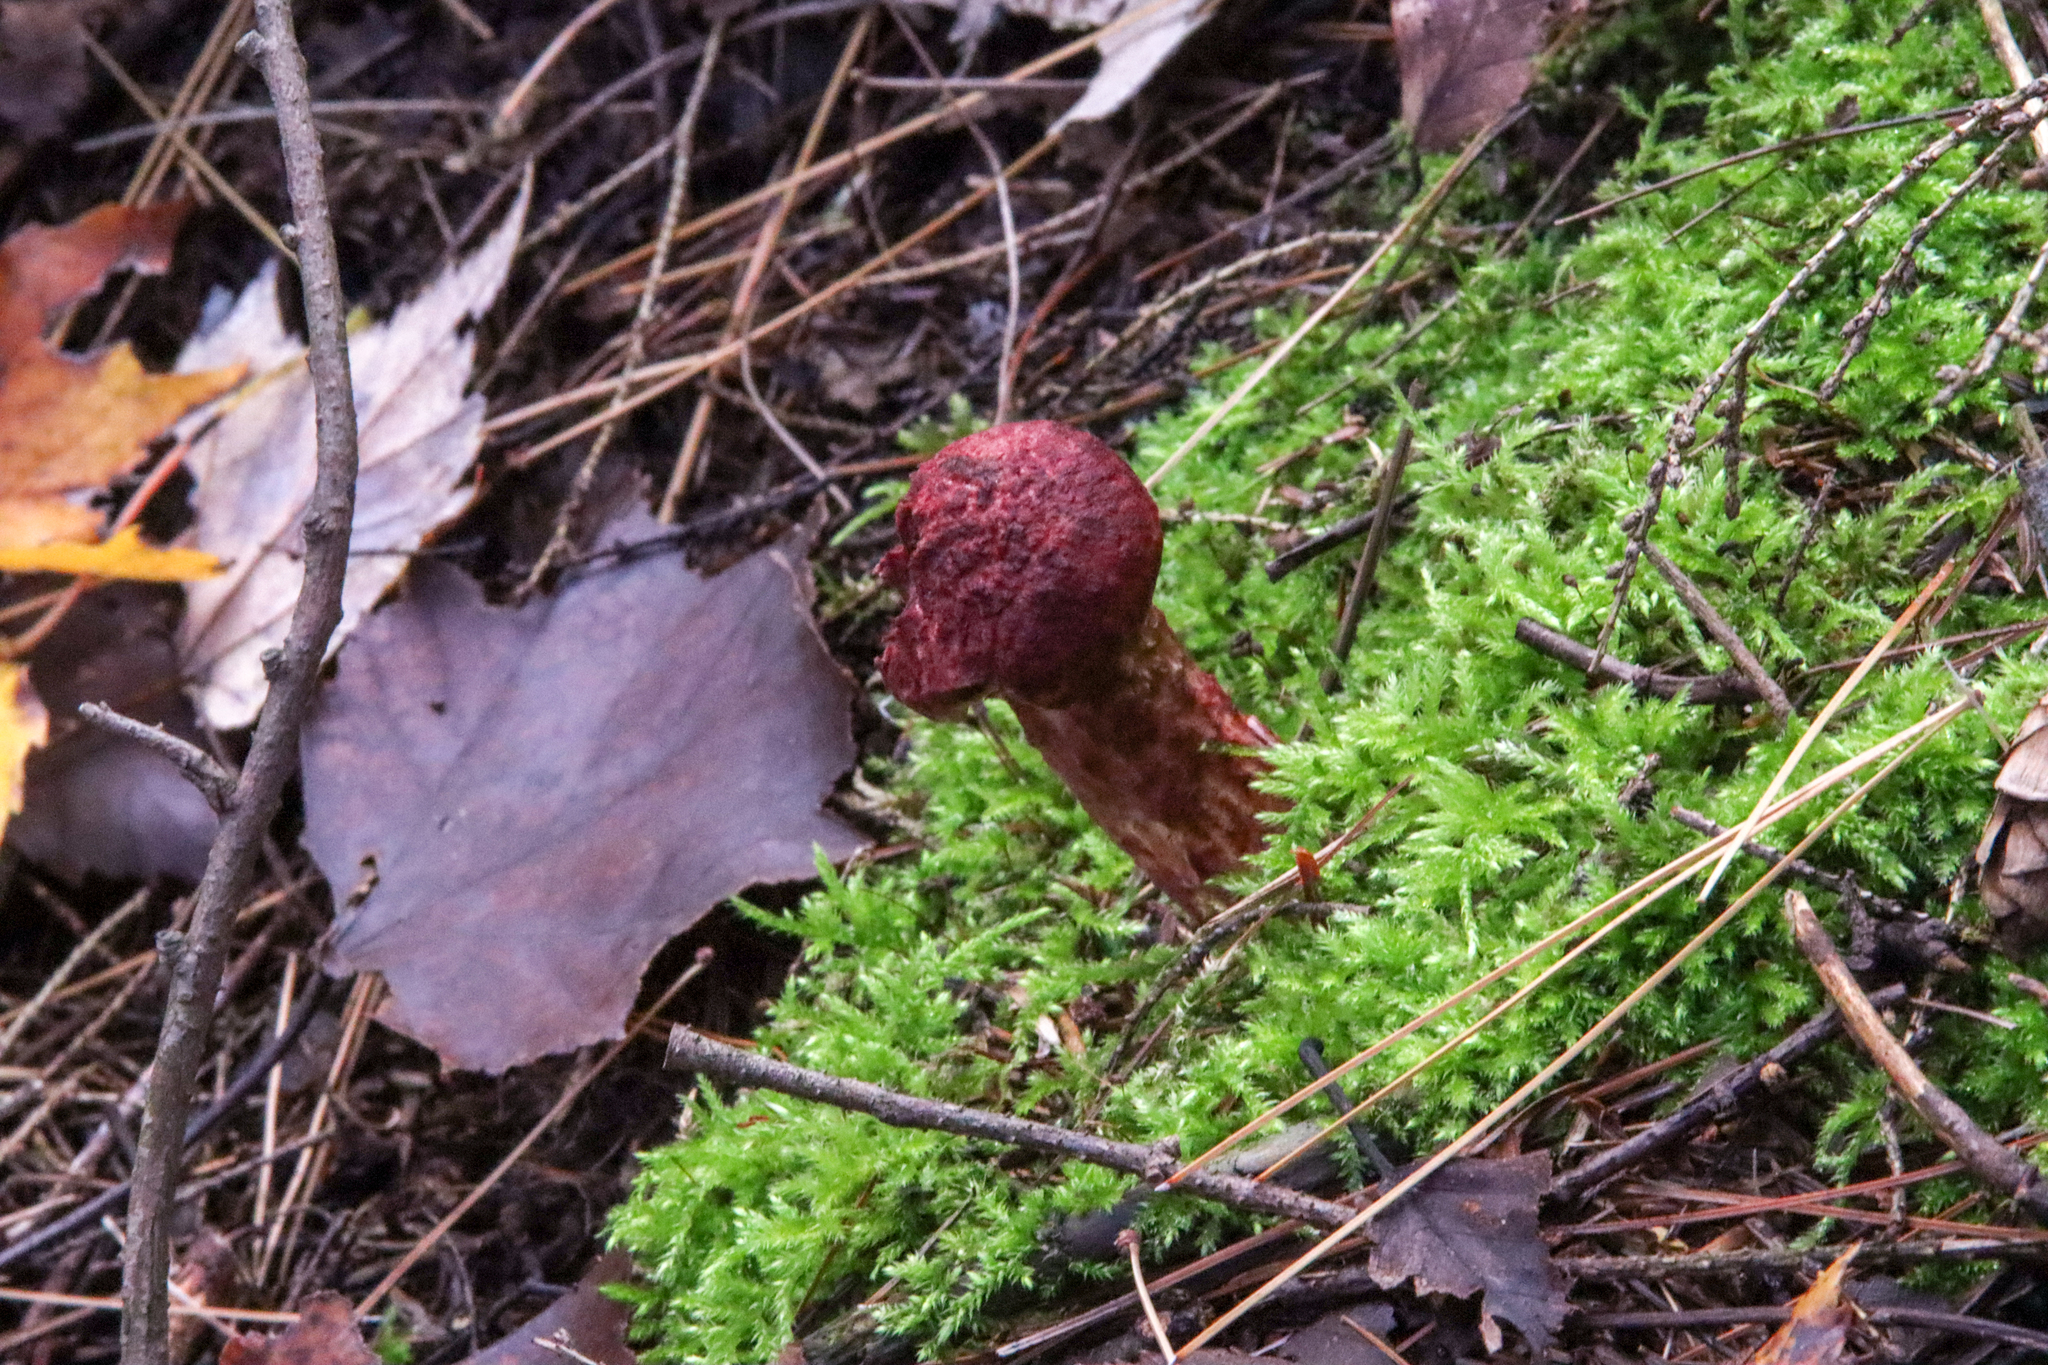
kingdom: Fungi
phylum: Basidiomycota
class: Agaricomycetes
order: Boletales
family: Suillaceae
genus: Suillus
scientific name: Suillus spraguei
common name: Painted suillus
